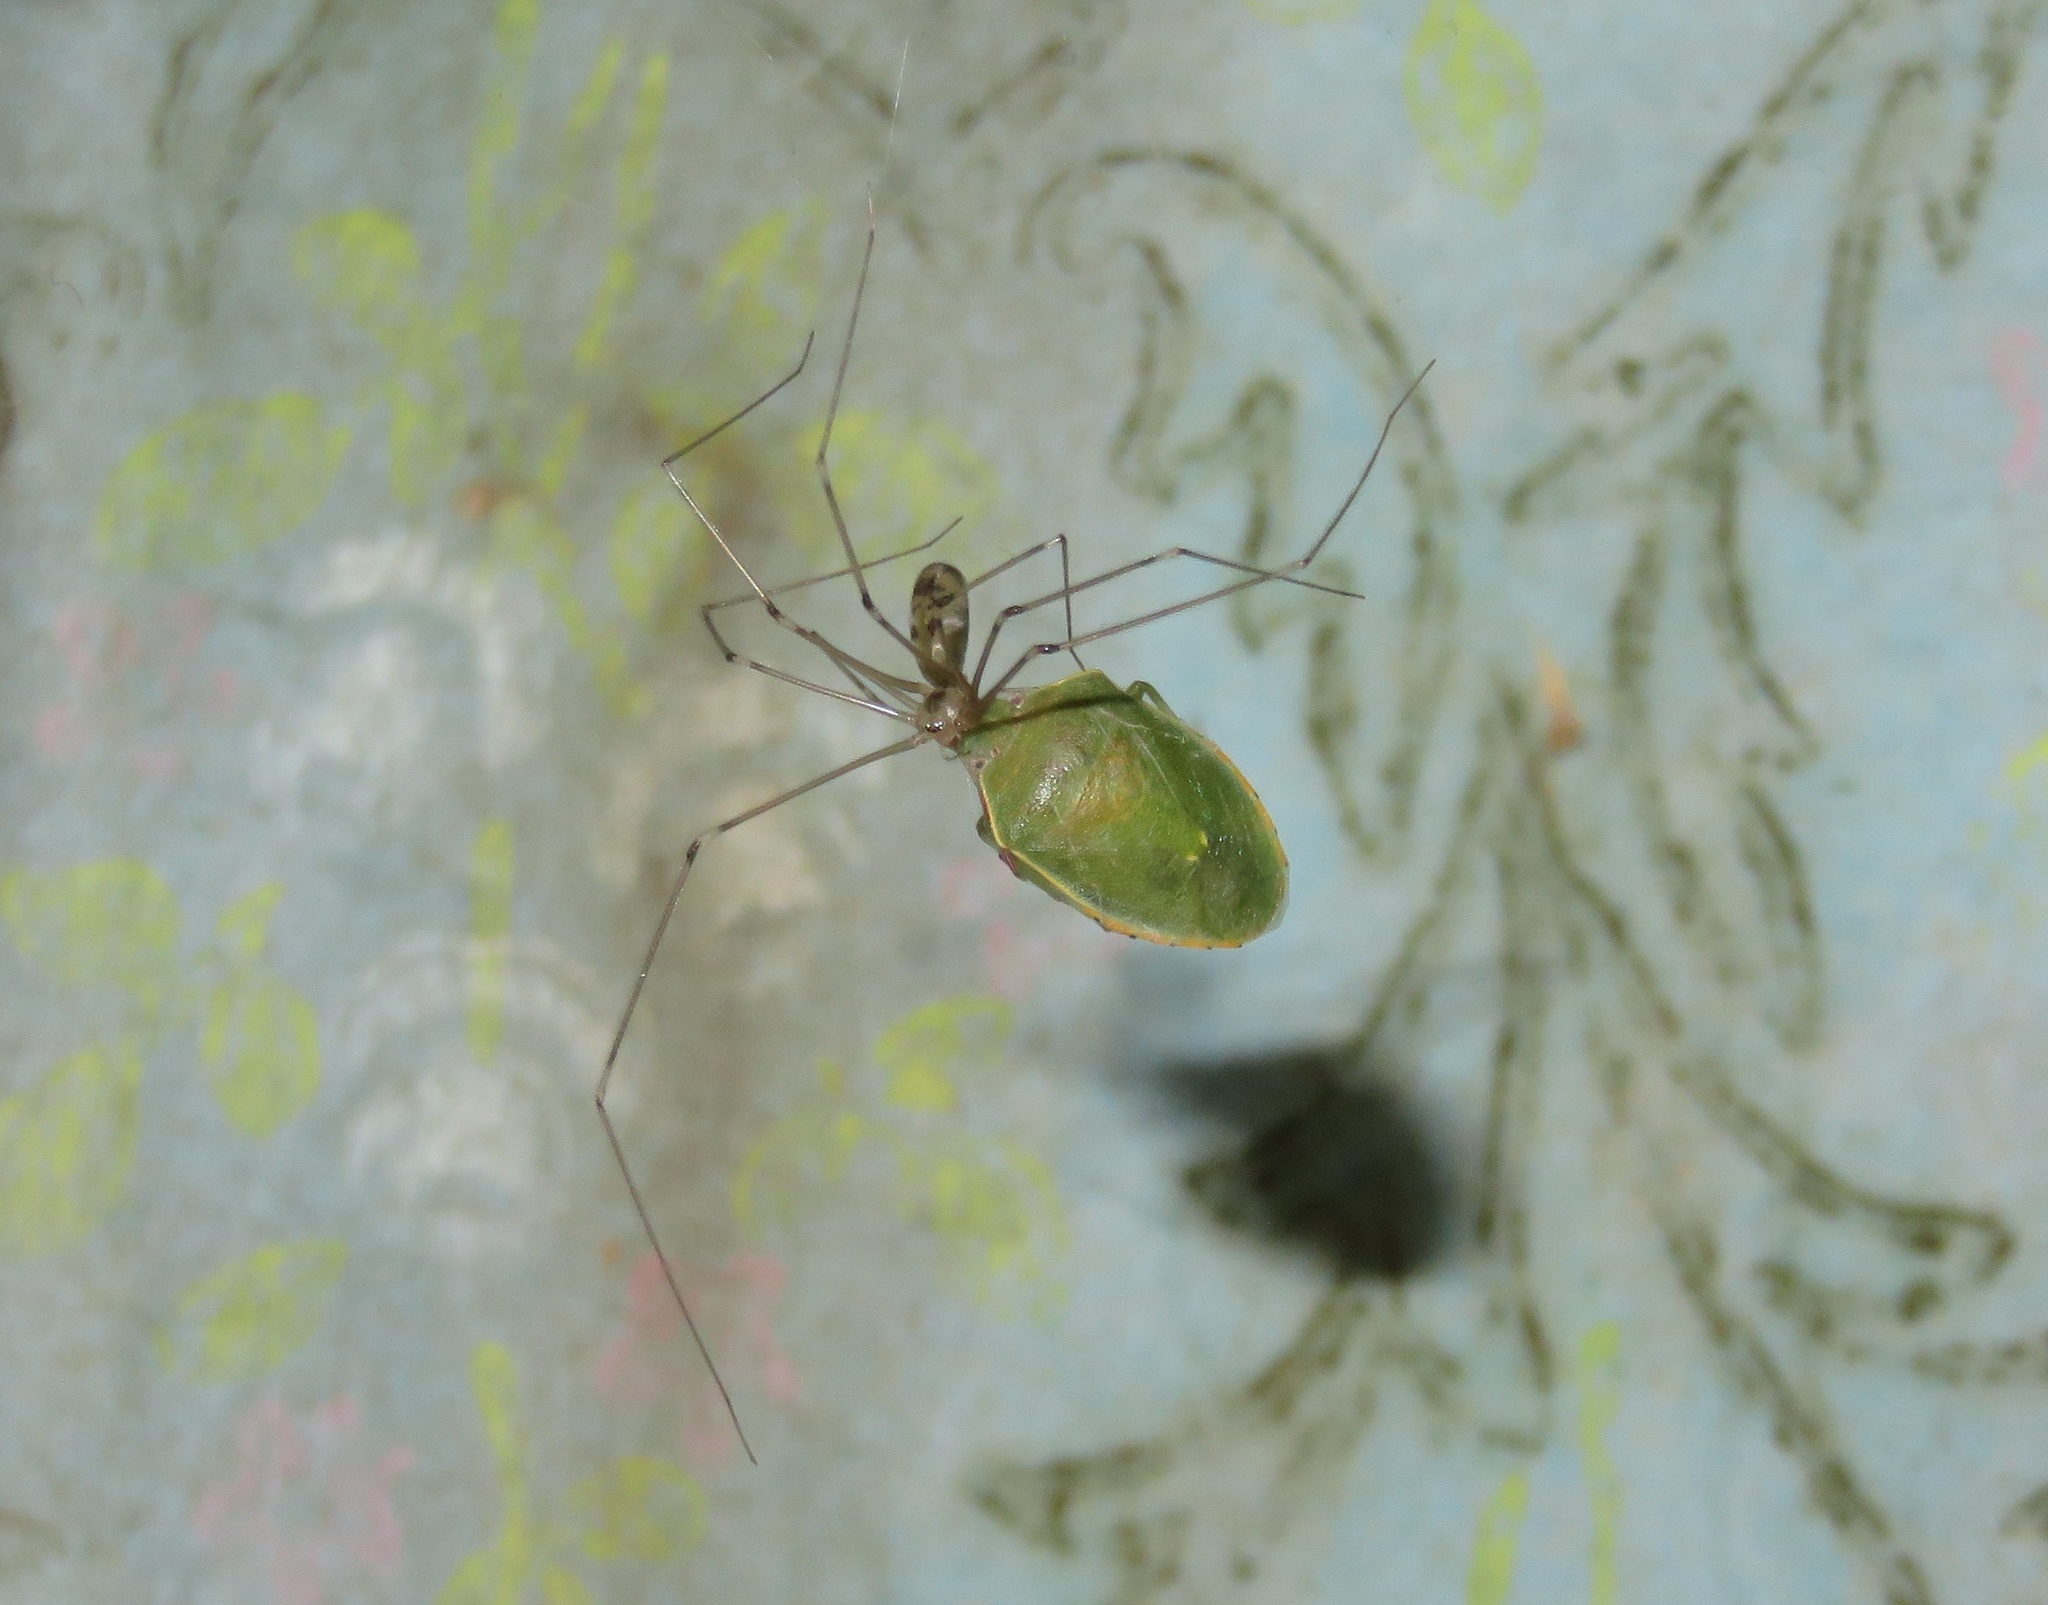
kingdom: Animalia
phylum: Arthropoda
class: Arachnida
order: Araneae
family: Pholcidae
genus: Pholcus
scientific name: Pholcus phalangioides
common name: Longbodied cellar spider
